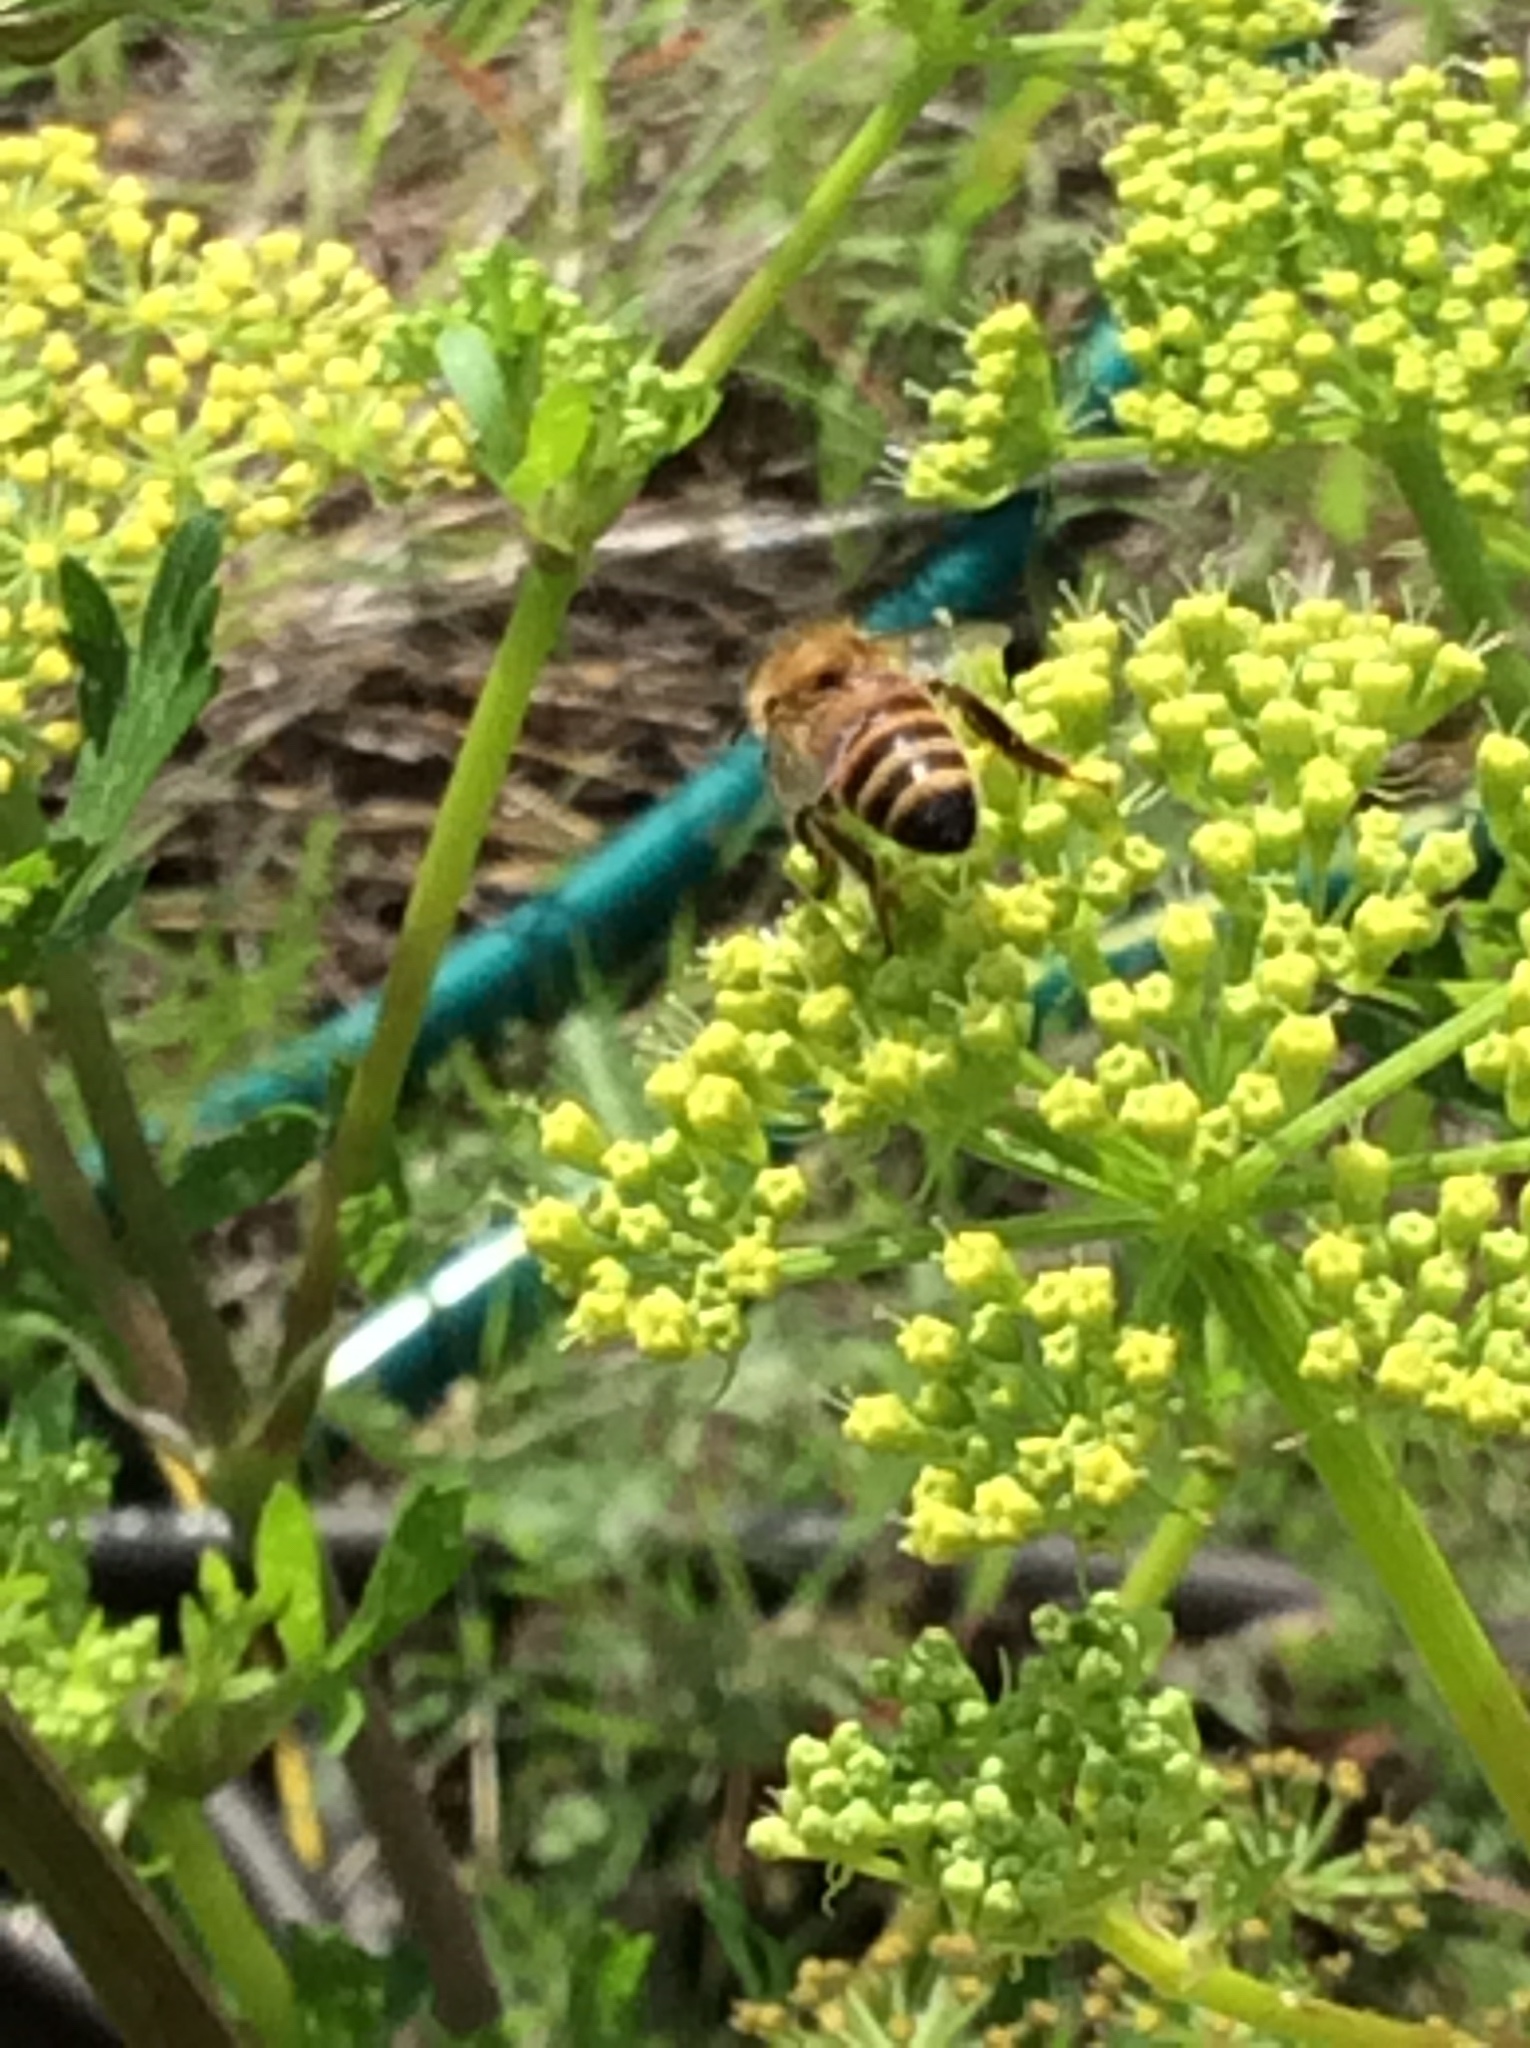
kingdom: Animalia
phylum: Arthropoda
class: Insecta
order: Hymenoptera
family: Apidae
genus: Apis
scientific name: Apis mellifera
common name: Honey bee
